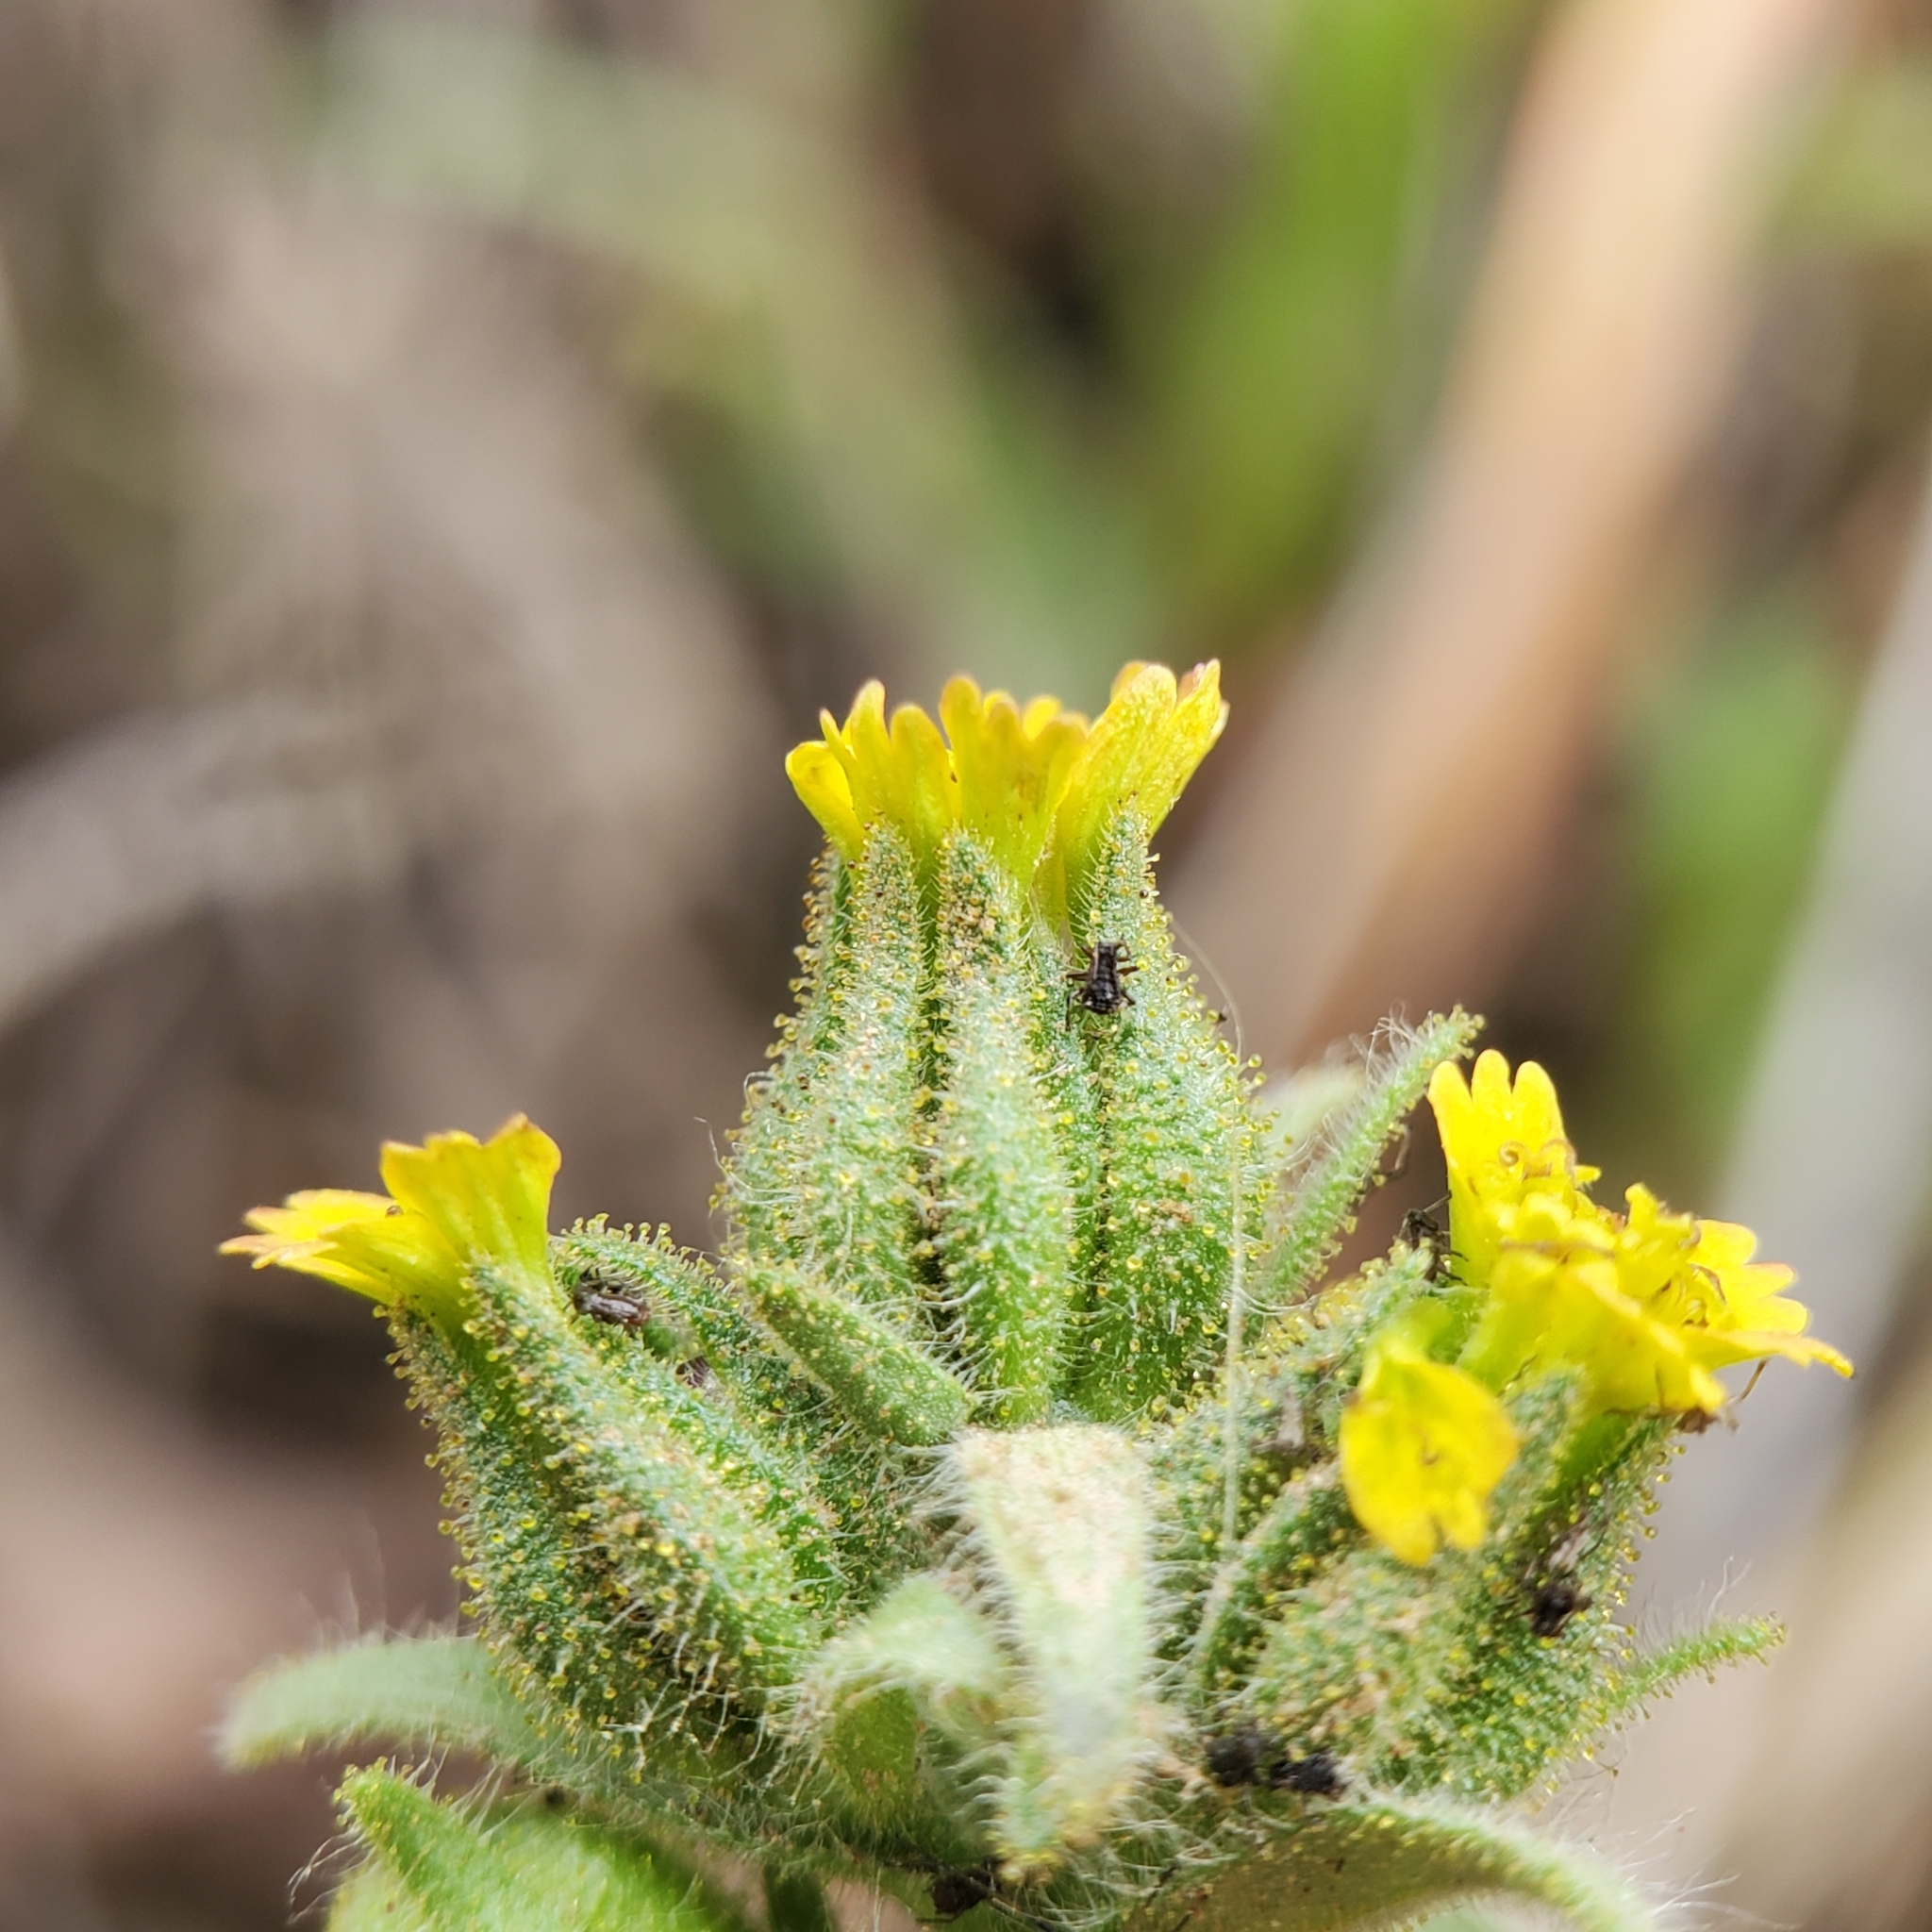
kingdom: Plantae
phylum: Tracheophyta
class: Magnoliopsida
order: Asterales
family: Asteraceae
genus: Madia
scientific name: Madia gracilis
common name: Grassy tarweed
